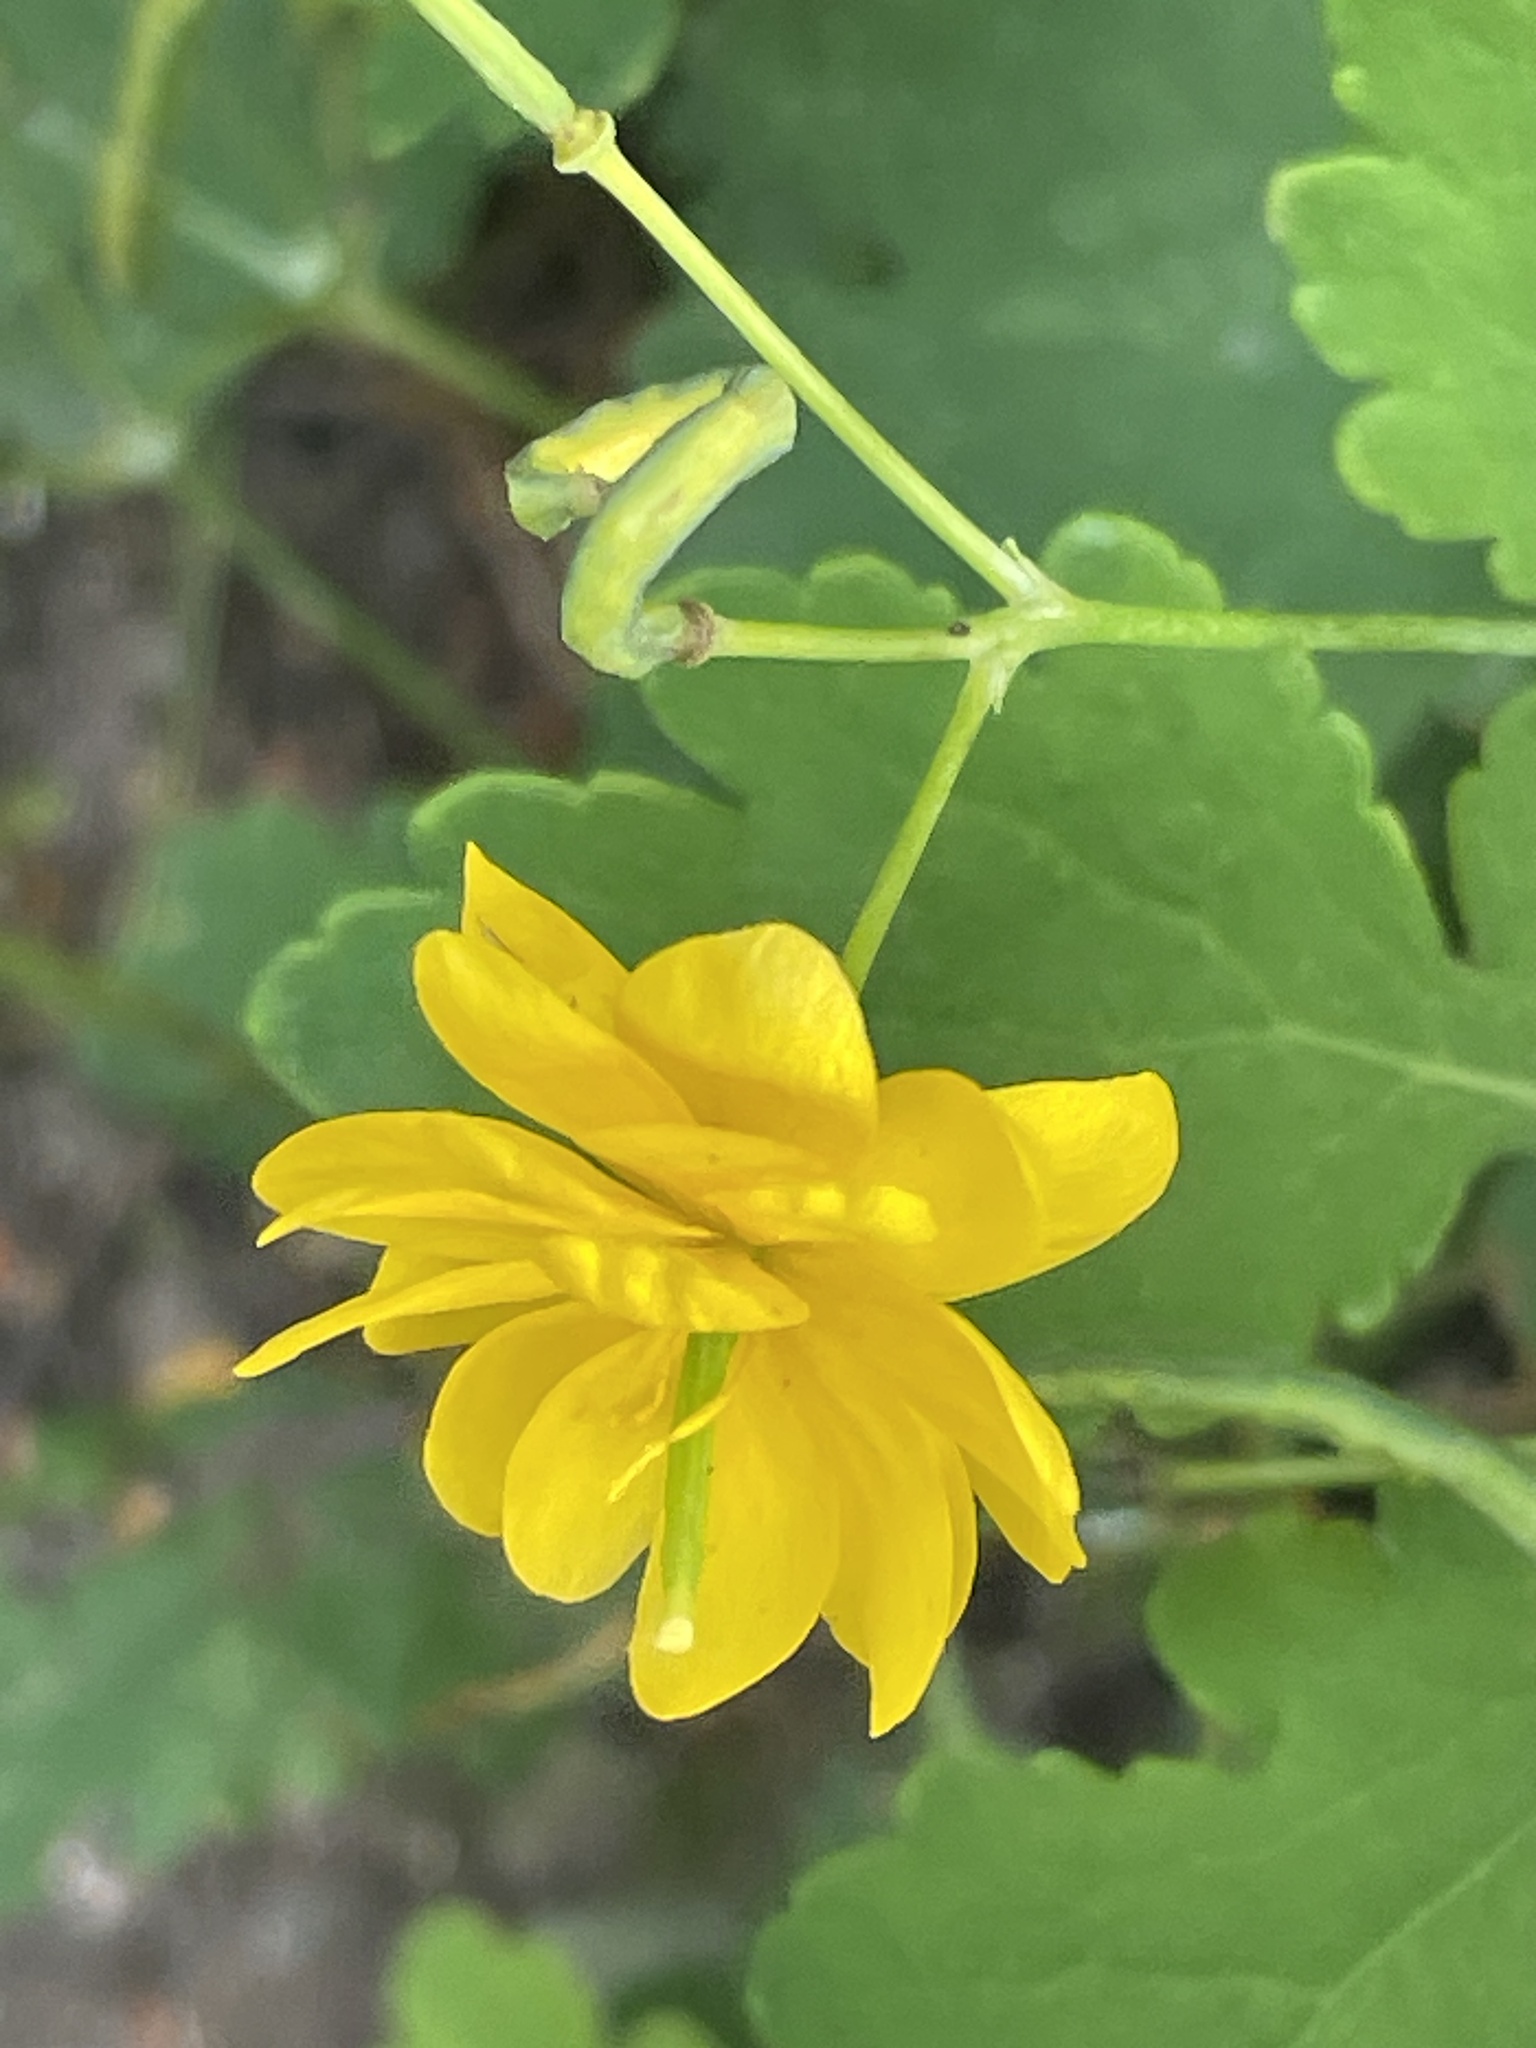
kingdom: Plantae
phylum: Tracheophyta
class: Magnoliopsida
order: Ranunculales
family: Papaveraceae
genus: Chelidonium
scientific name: Chelidonium majus
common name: Greater celandine
